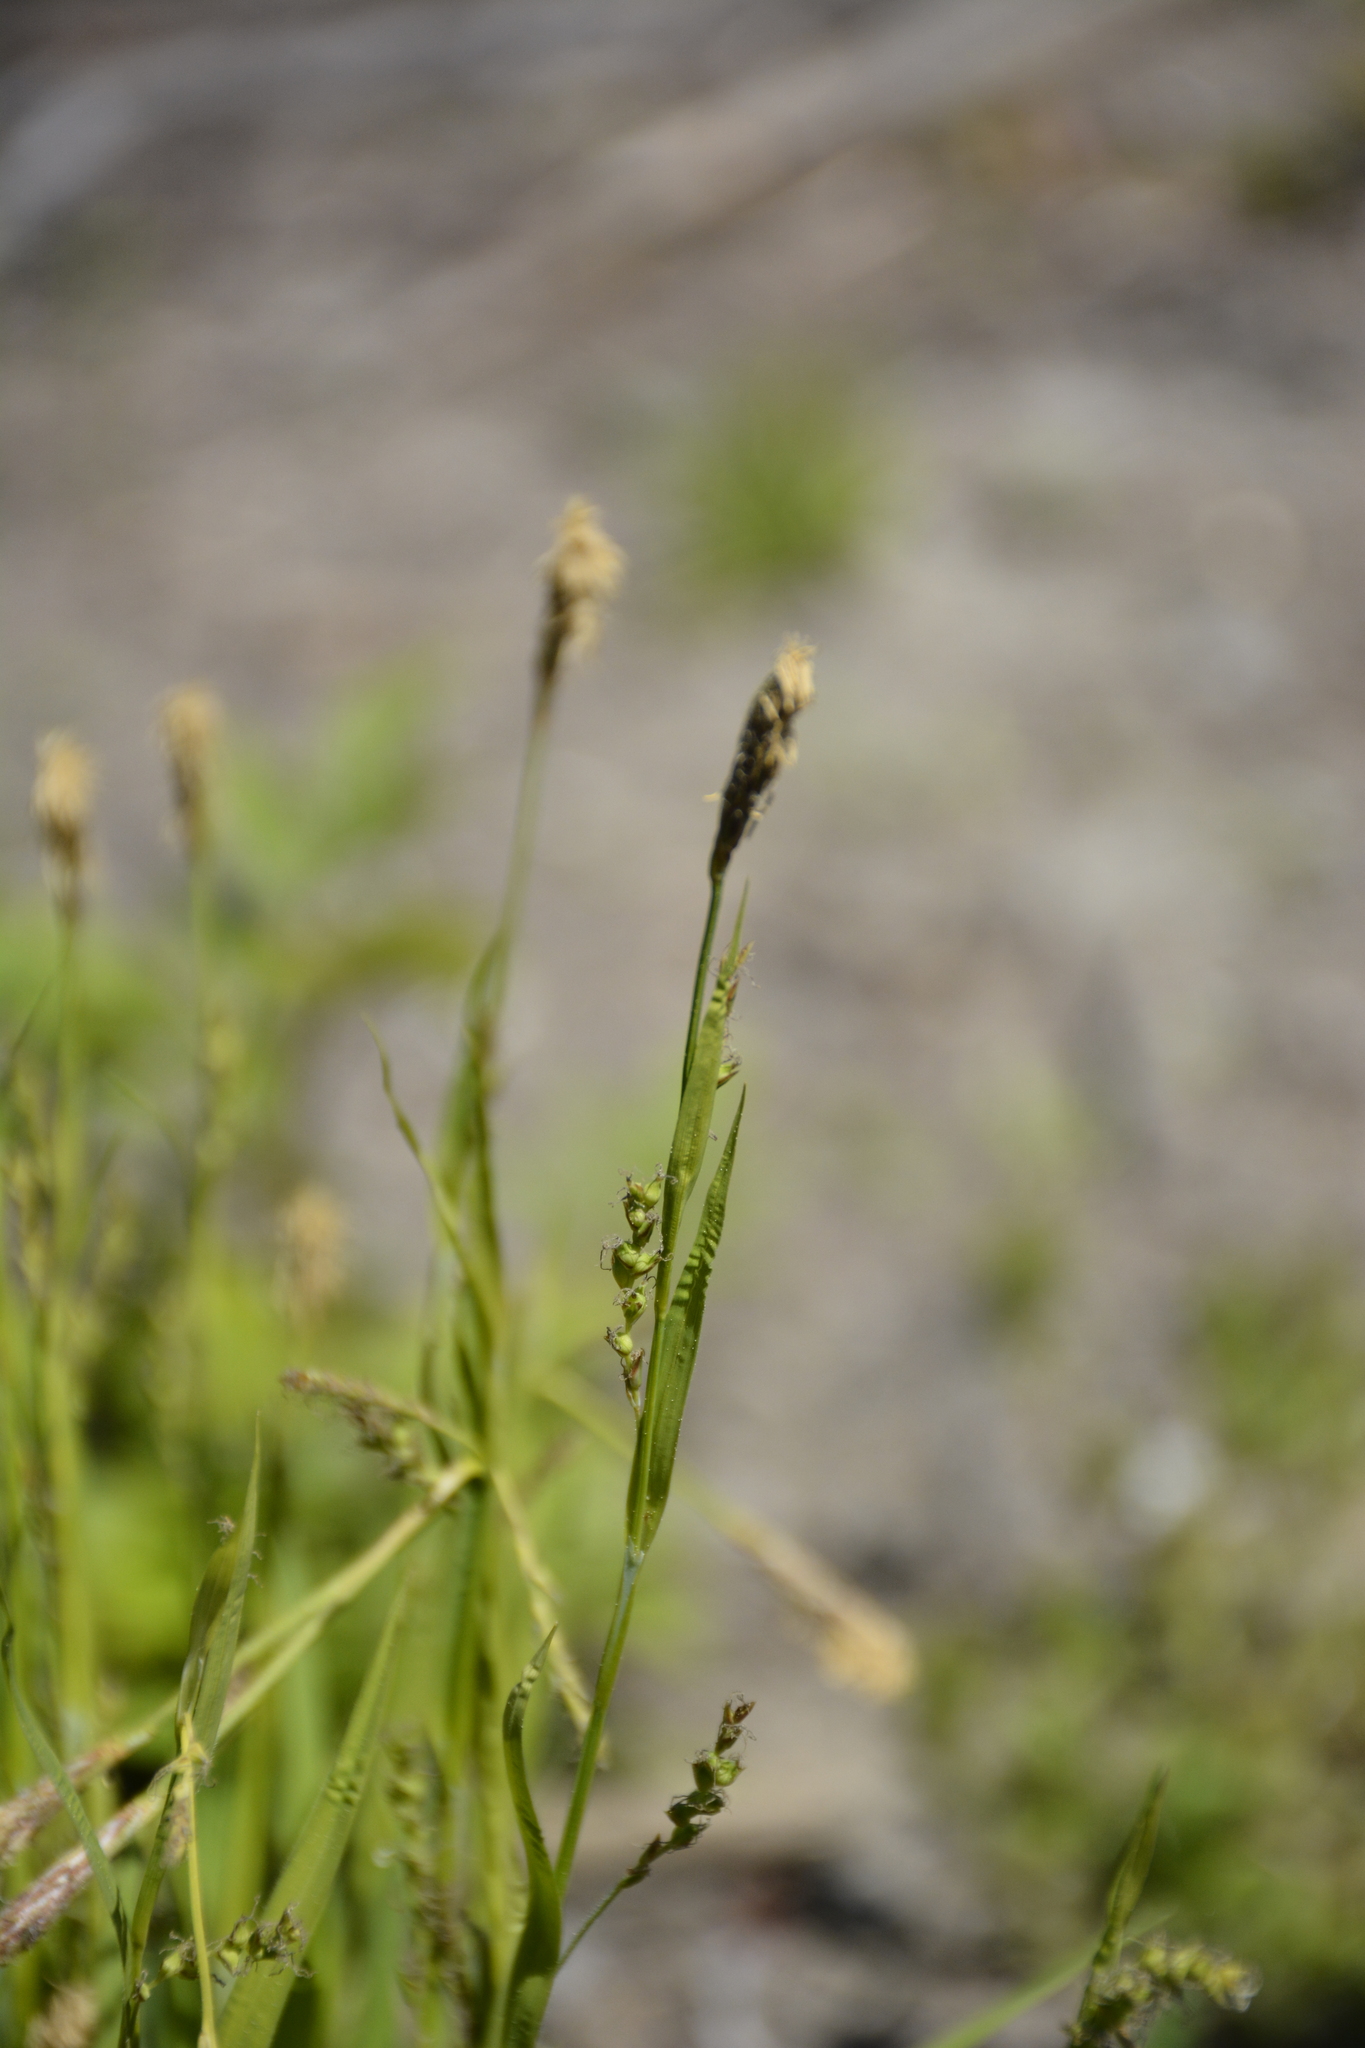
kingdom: Plantae
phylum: Tracheophyta
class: Liliopsida
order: Poales
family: Cyperaceae
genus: Carex
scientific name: Carex pilosa
